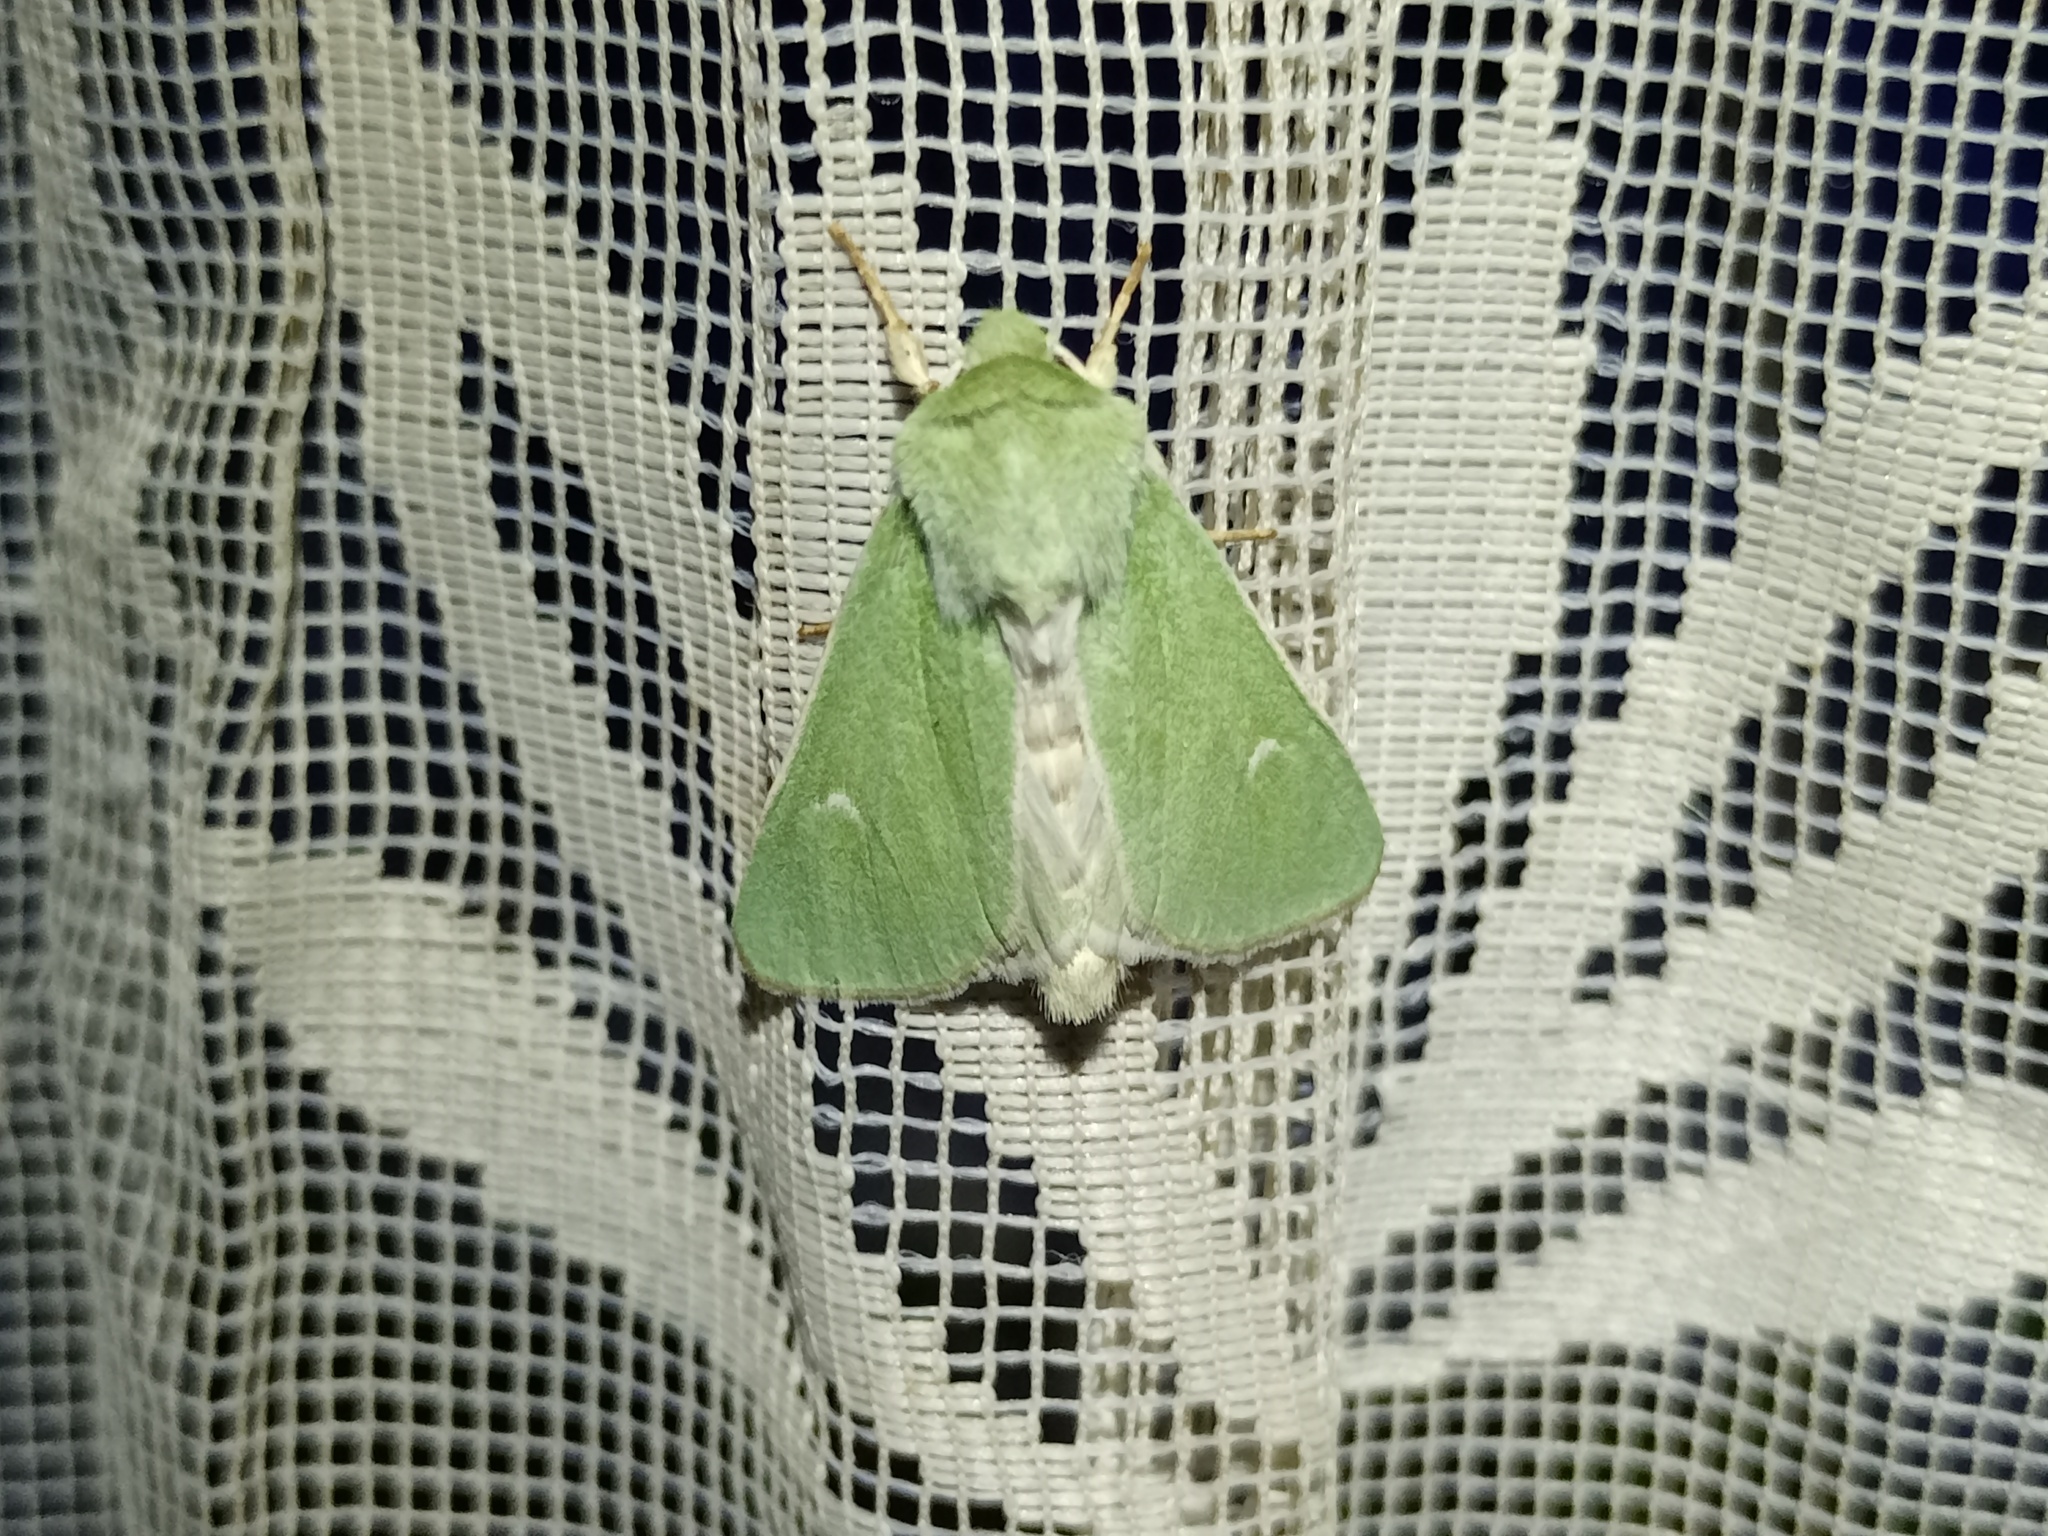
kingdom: Animalia
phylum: Arthropoda
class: Insecta
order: Lepidoptera
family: Noctuidae
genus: Calamia
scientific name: Calamia tridens
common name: Burren green
